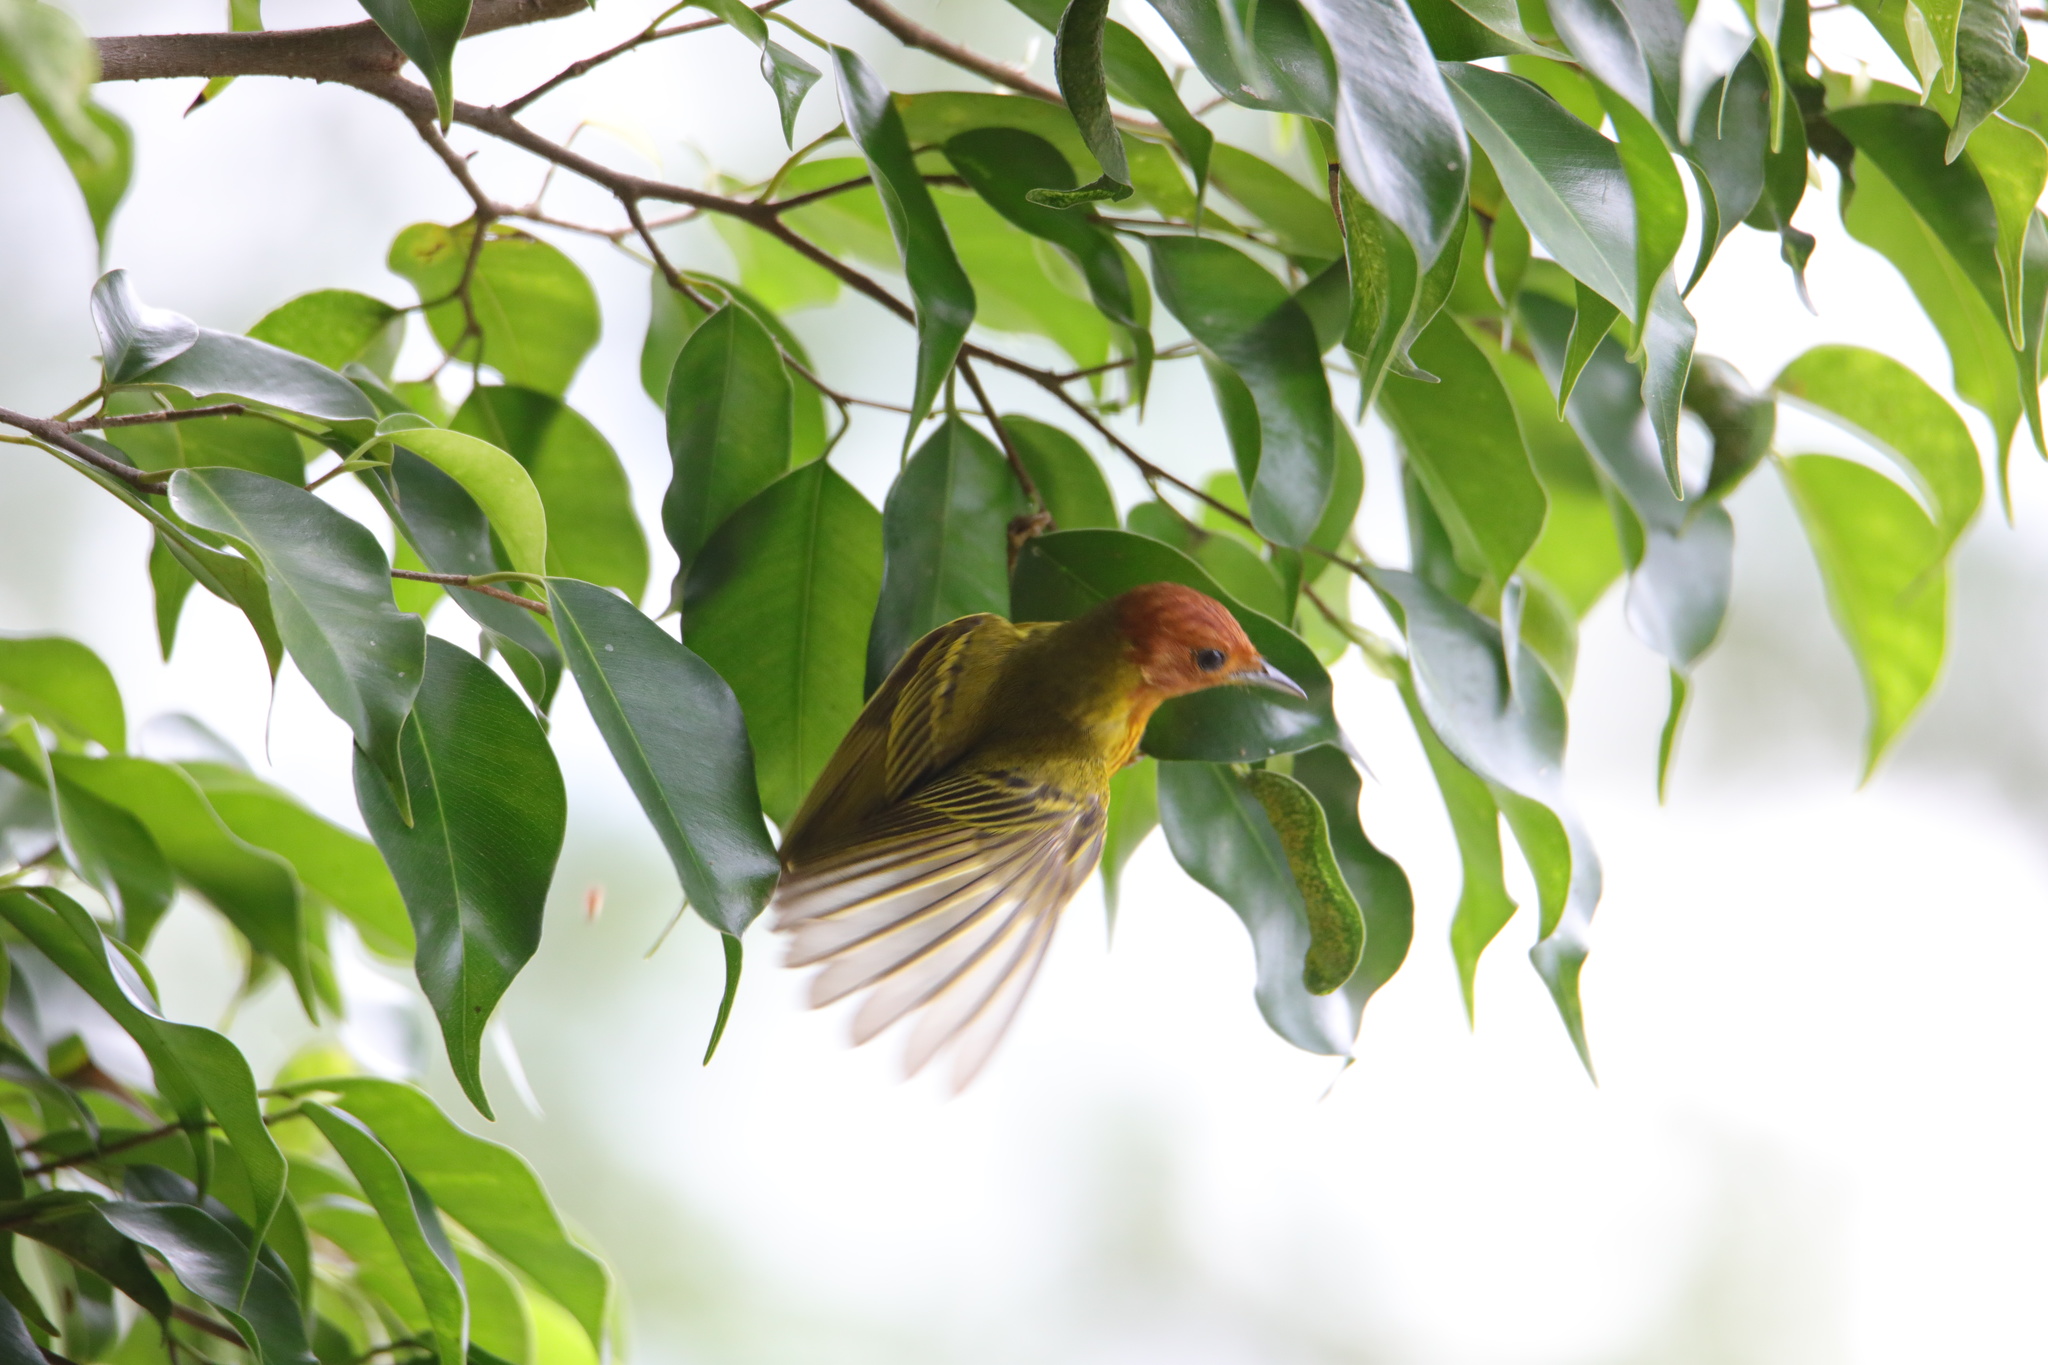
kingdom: Animalia
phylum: Chordata
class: Aves
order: Passeriformes
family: Parulidae
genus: Setophaga
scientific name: Setophaga petechia
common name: Yellow warbler
